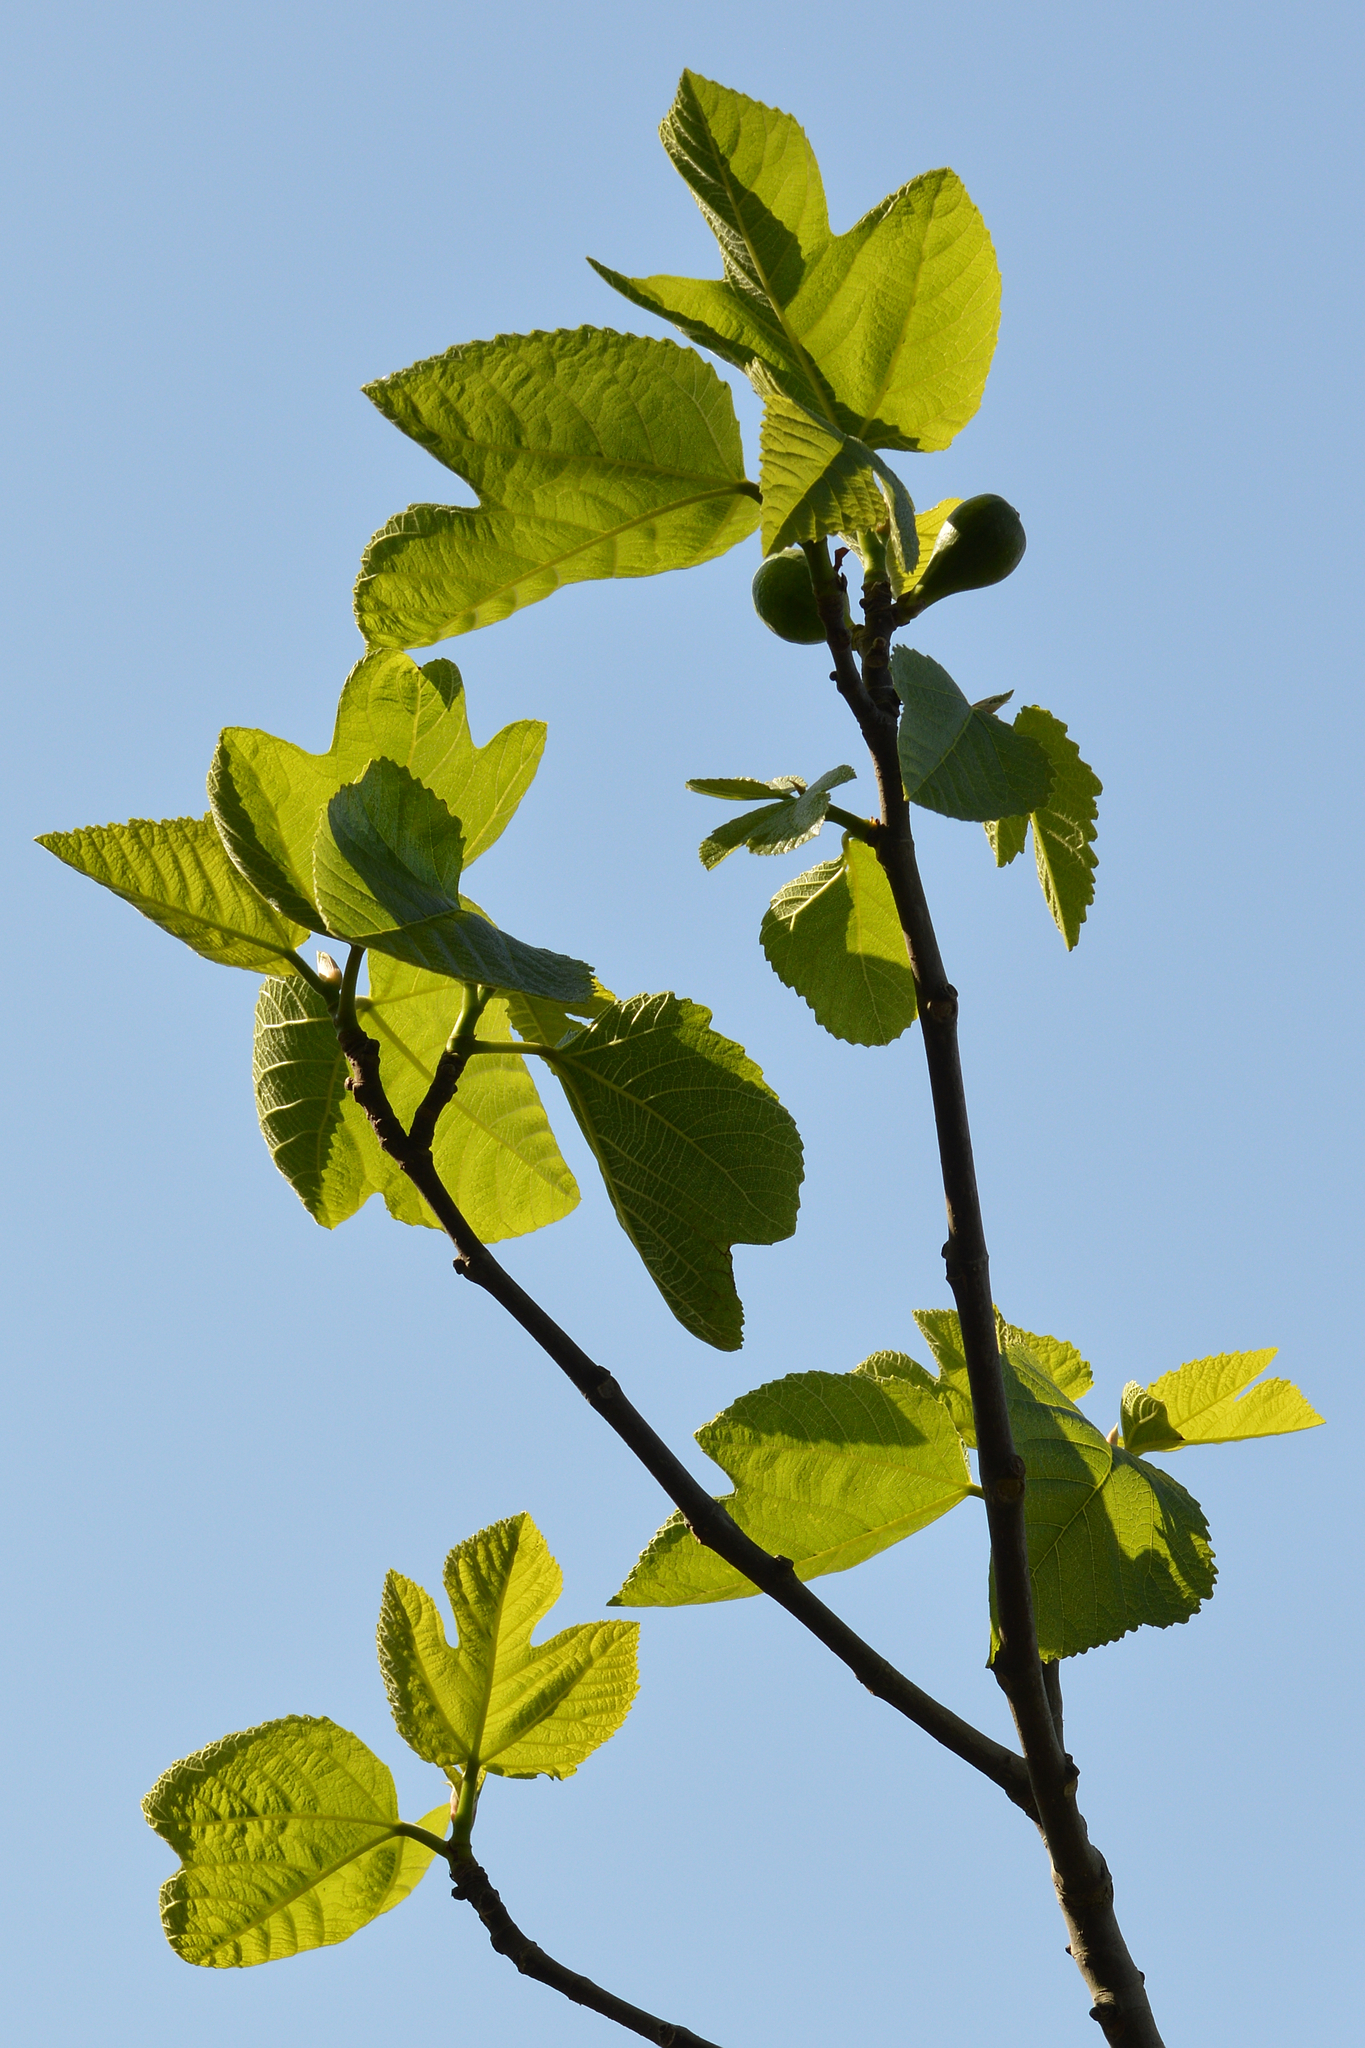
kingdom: Plantae
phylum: Tracheophyta
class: Magnoliopsida
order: Rosales
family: Moraceae
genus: Ficus
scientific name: Ficus carica
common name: Fig
